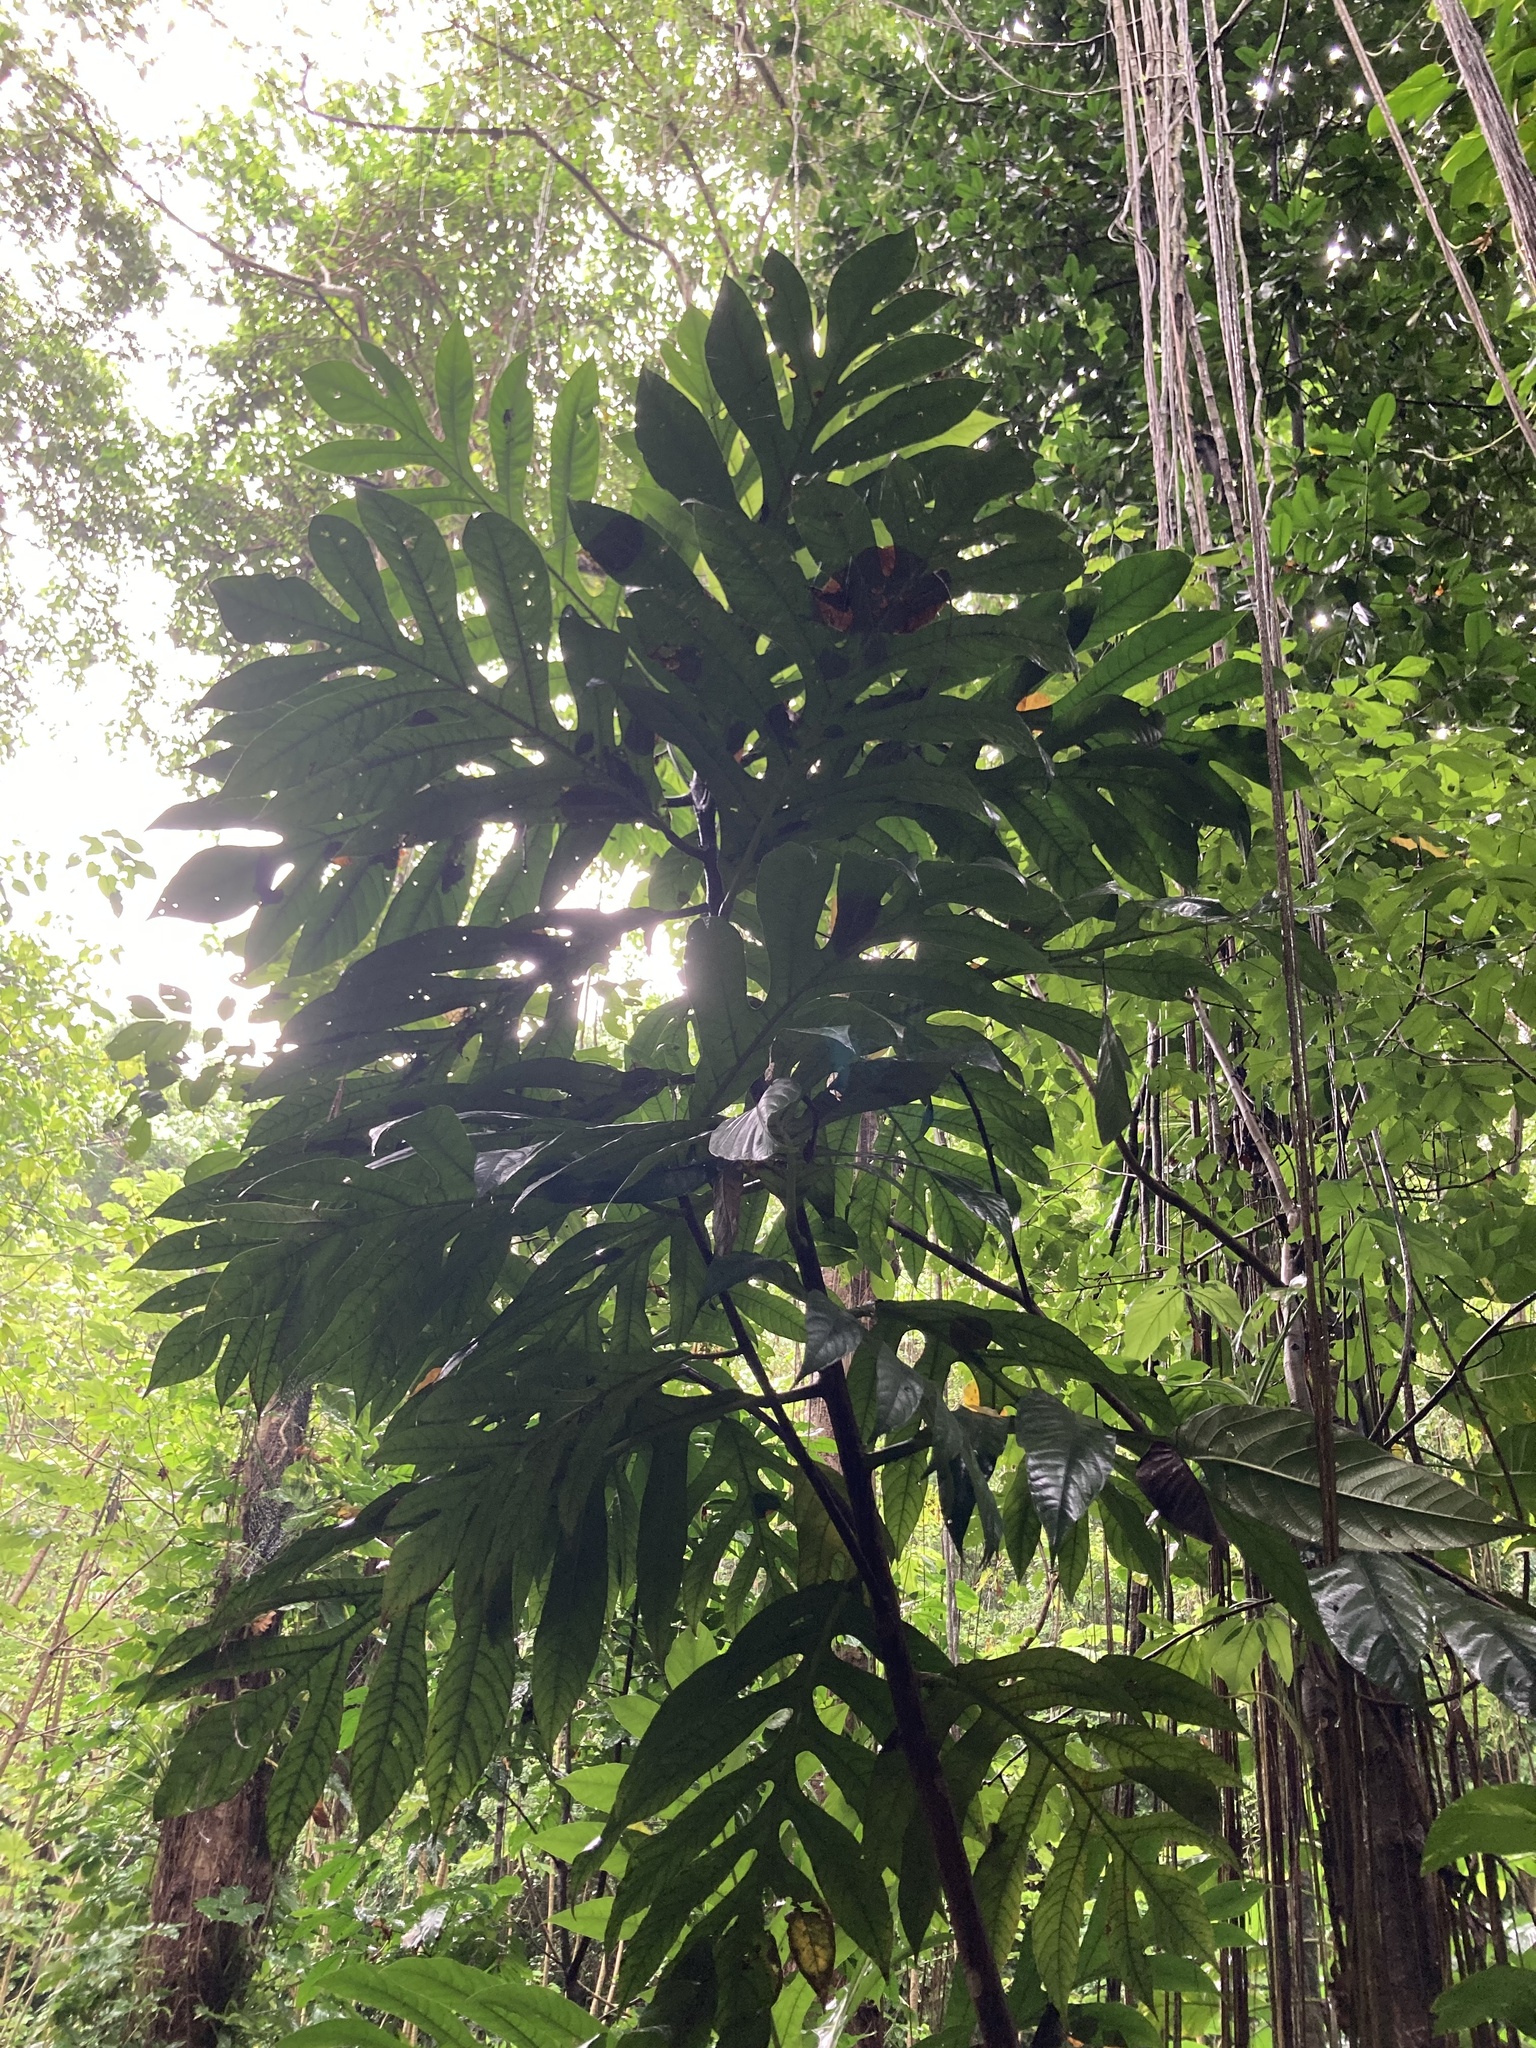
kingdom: Plantae
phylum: Tracheophyta
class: Magnoliopsida
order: Rosales
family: Moraceae
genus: Artocarpus
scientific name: Artocarpus altilis
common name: Breadfruit
